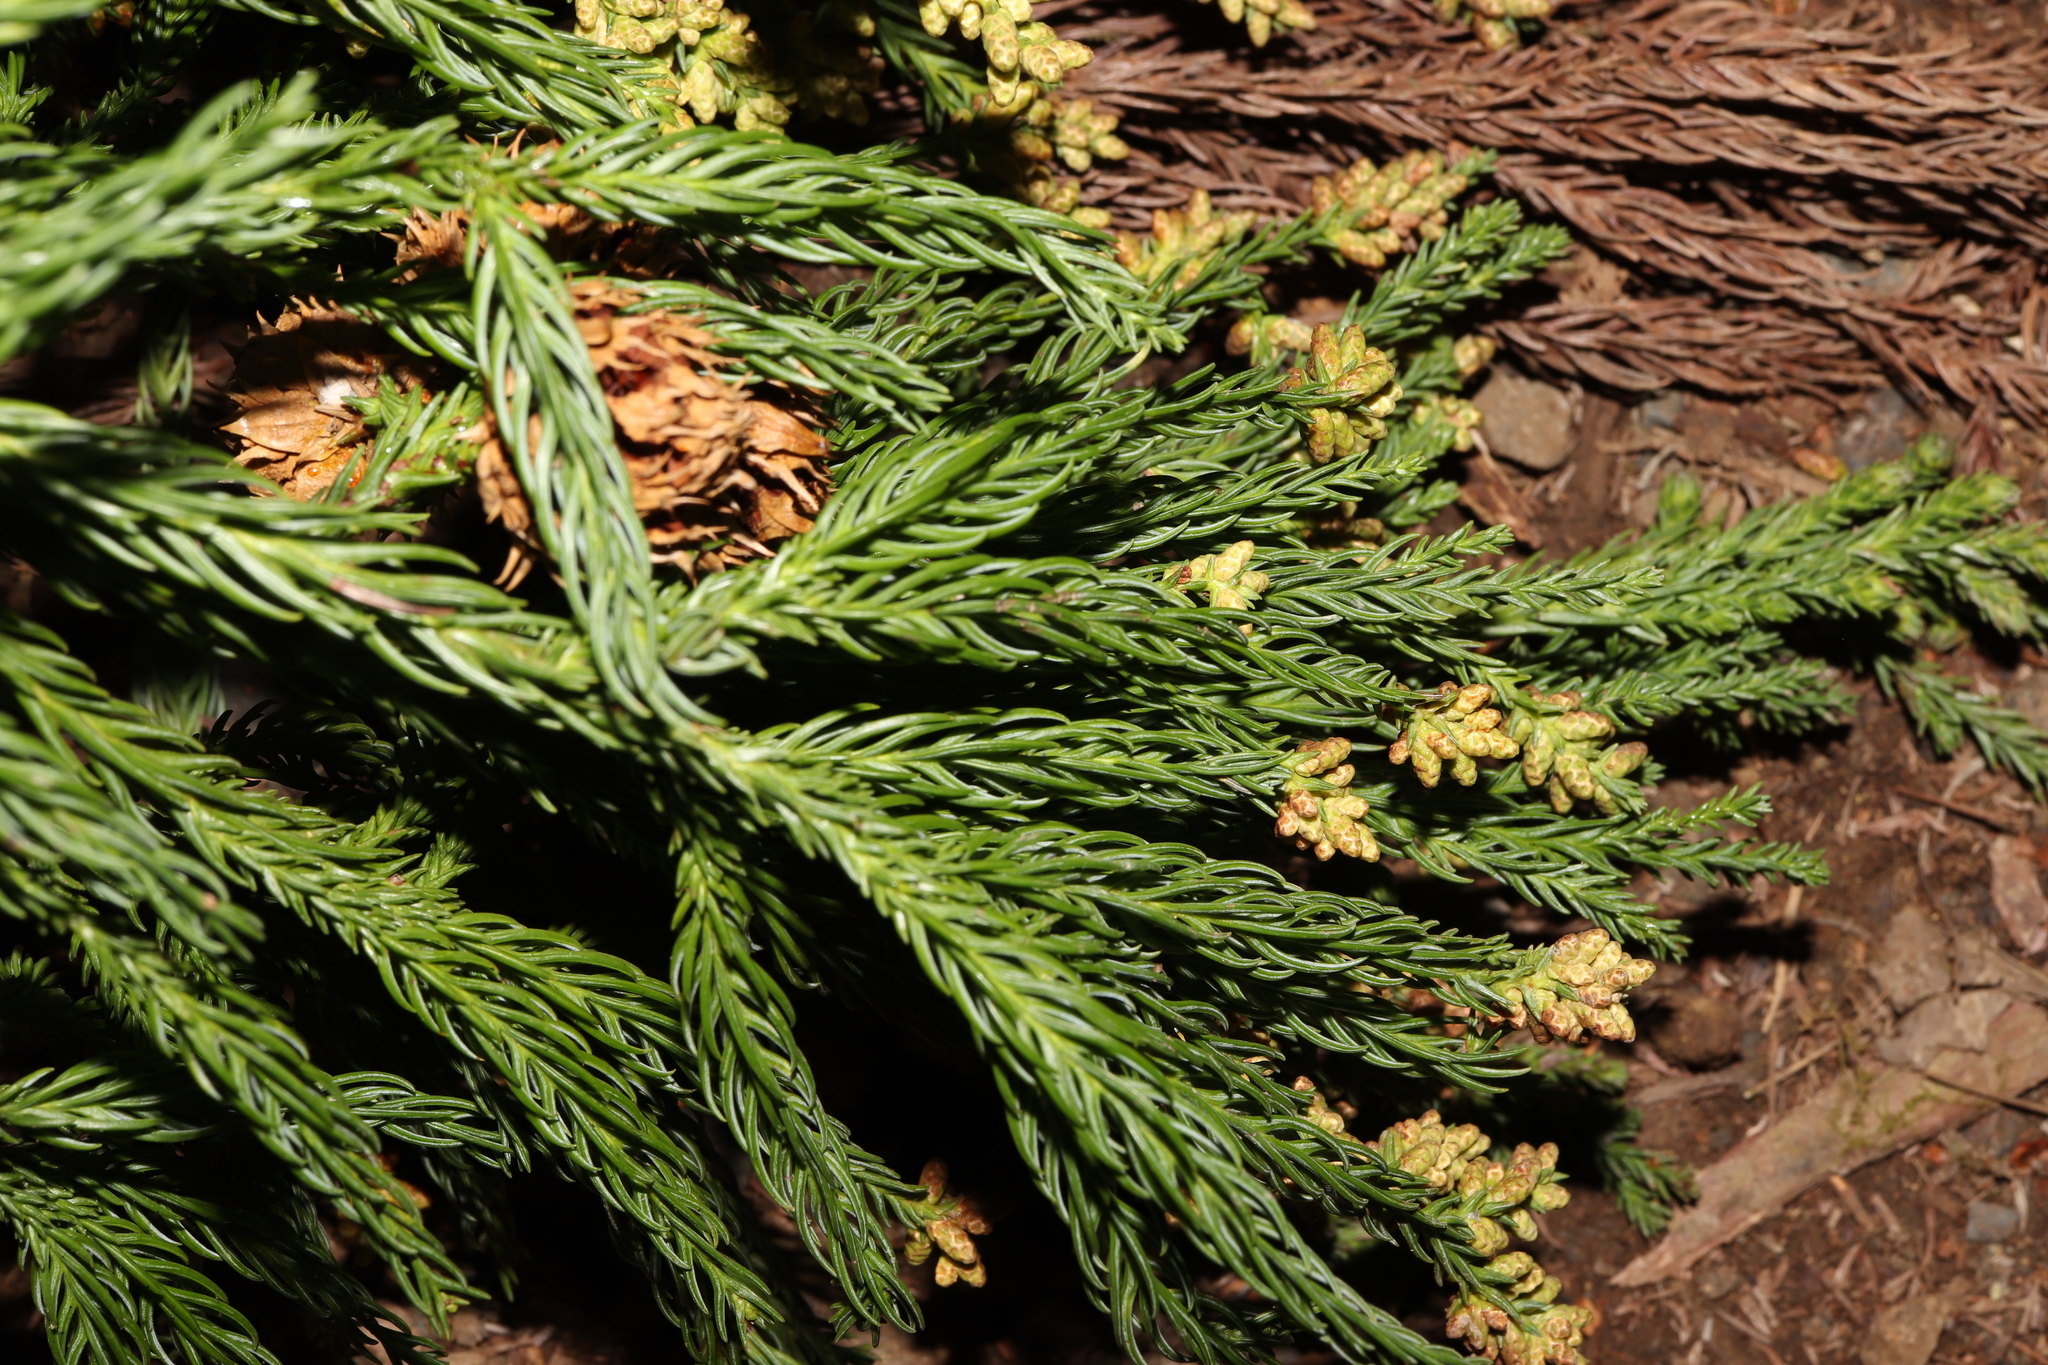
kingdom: Plantae
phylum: Tracheophyta
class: Pinopsida
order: Pinales
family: Cupressaceae
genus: Cryptomeria
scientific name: Cryptomeria japonica
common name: Japanese cedar
